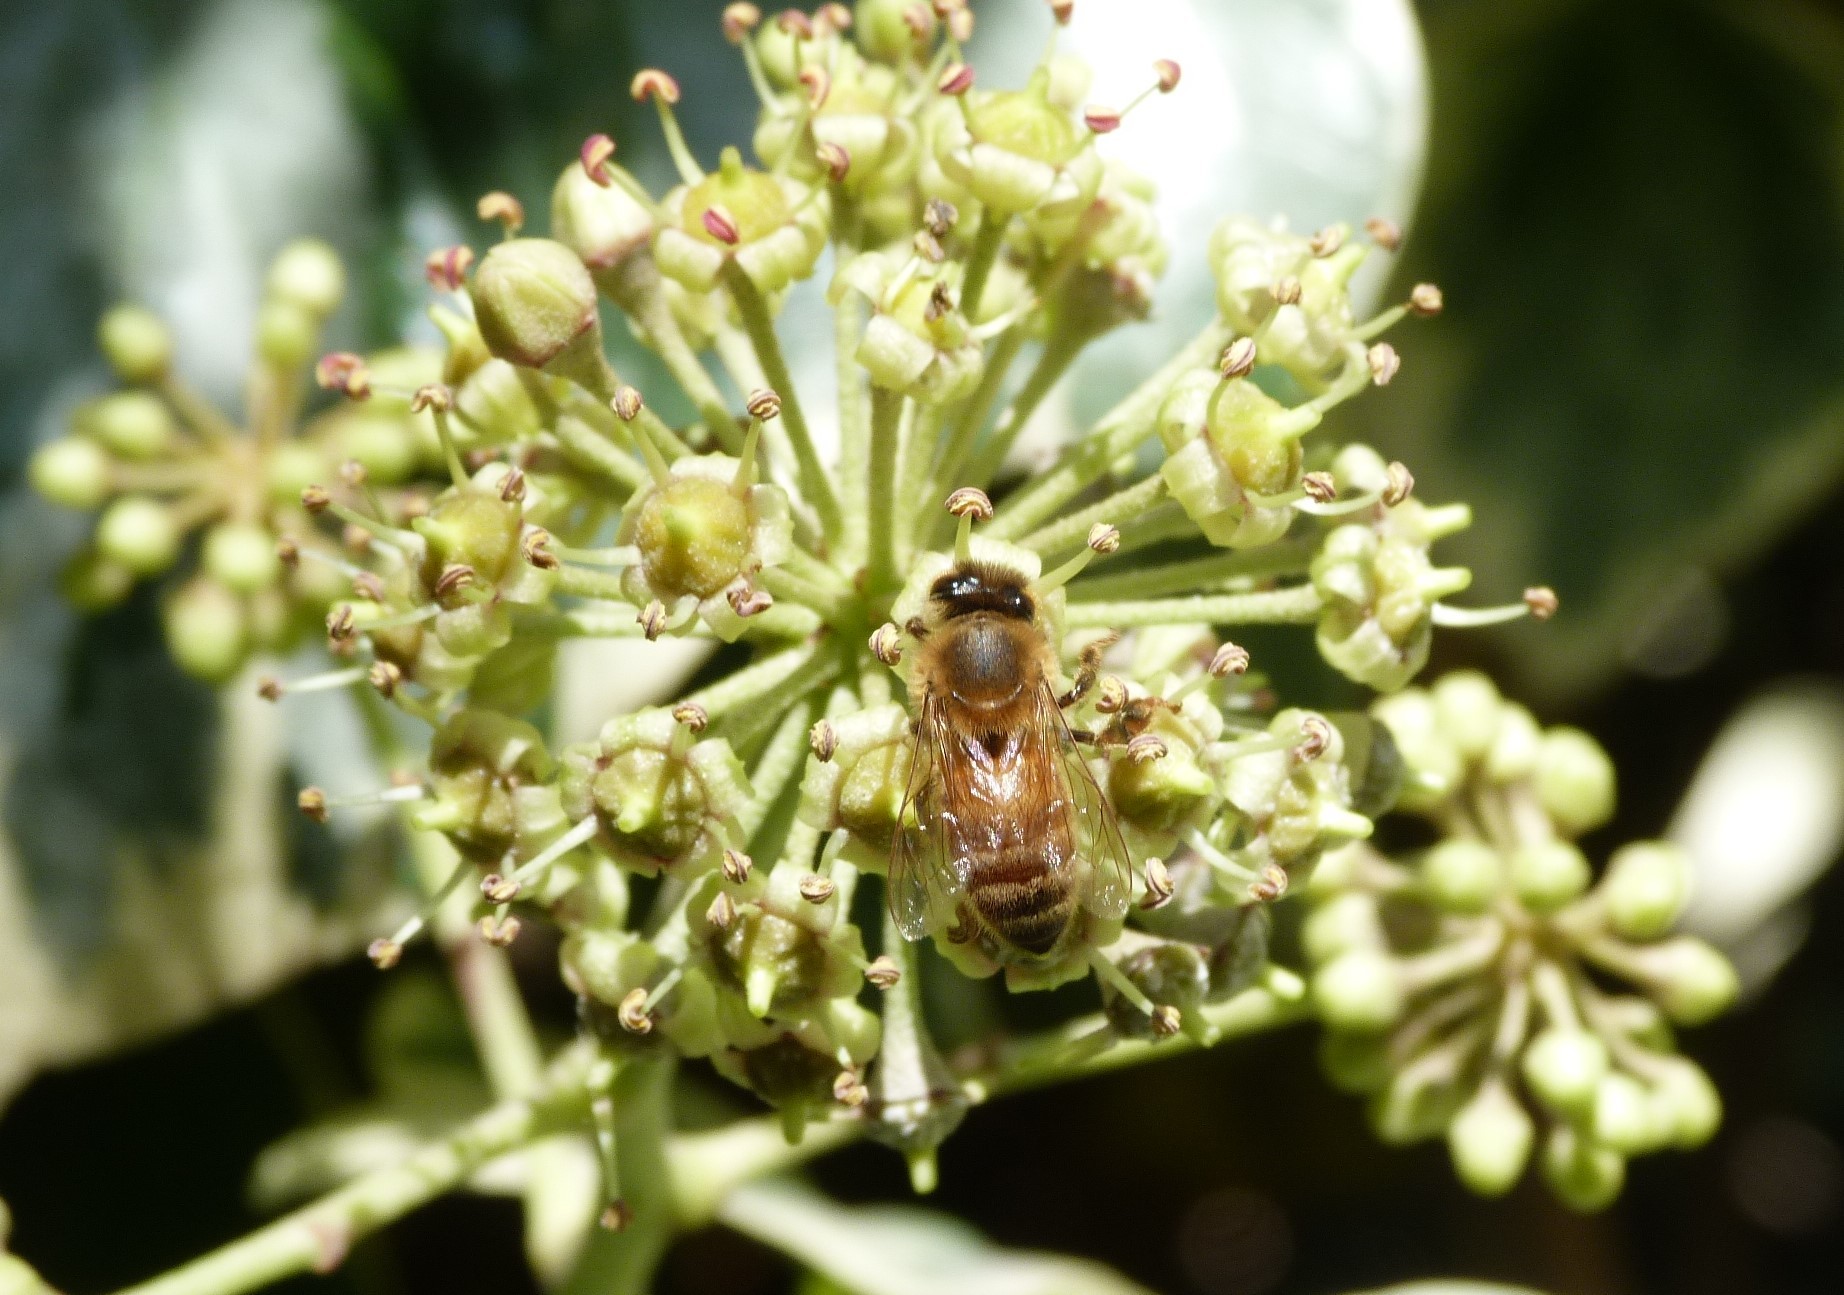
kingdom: Animalia
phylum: Arthropoda
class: Insecta
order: Hymenoptera
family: Apidae
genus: Apis
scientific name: Apis mellifera
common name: Honey bee
